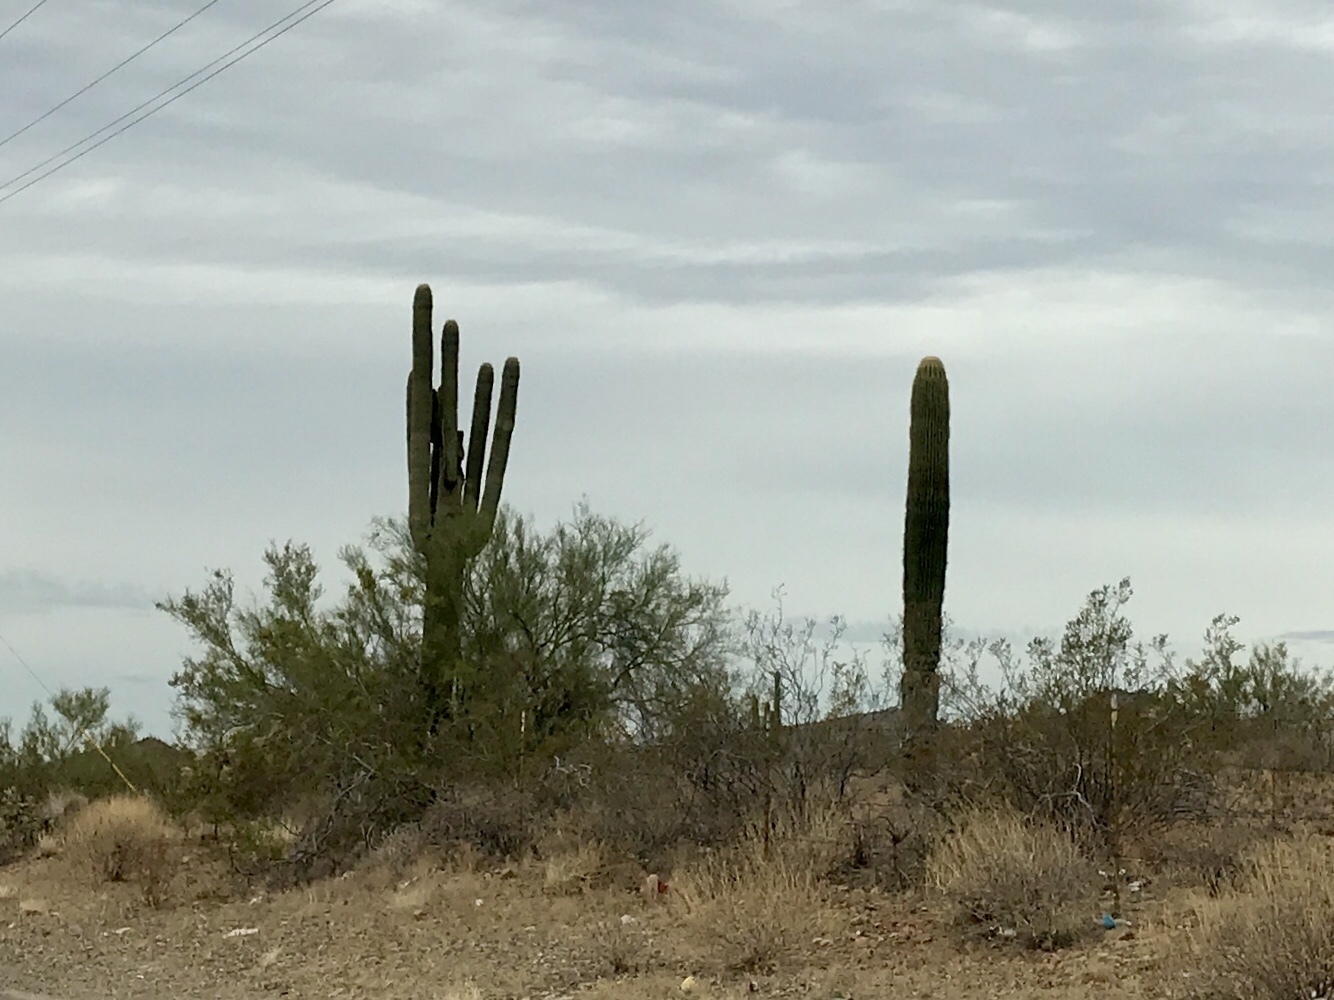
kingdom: Plantae
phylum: Tracheophyta
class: Magnoliopsida
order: Caryophyllales
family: Cactaceae
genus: Carnegiea
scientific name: Carnegiea gigantea
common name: Saguaro
